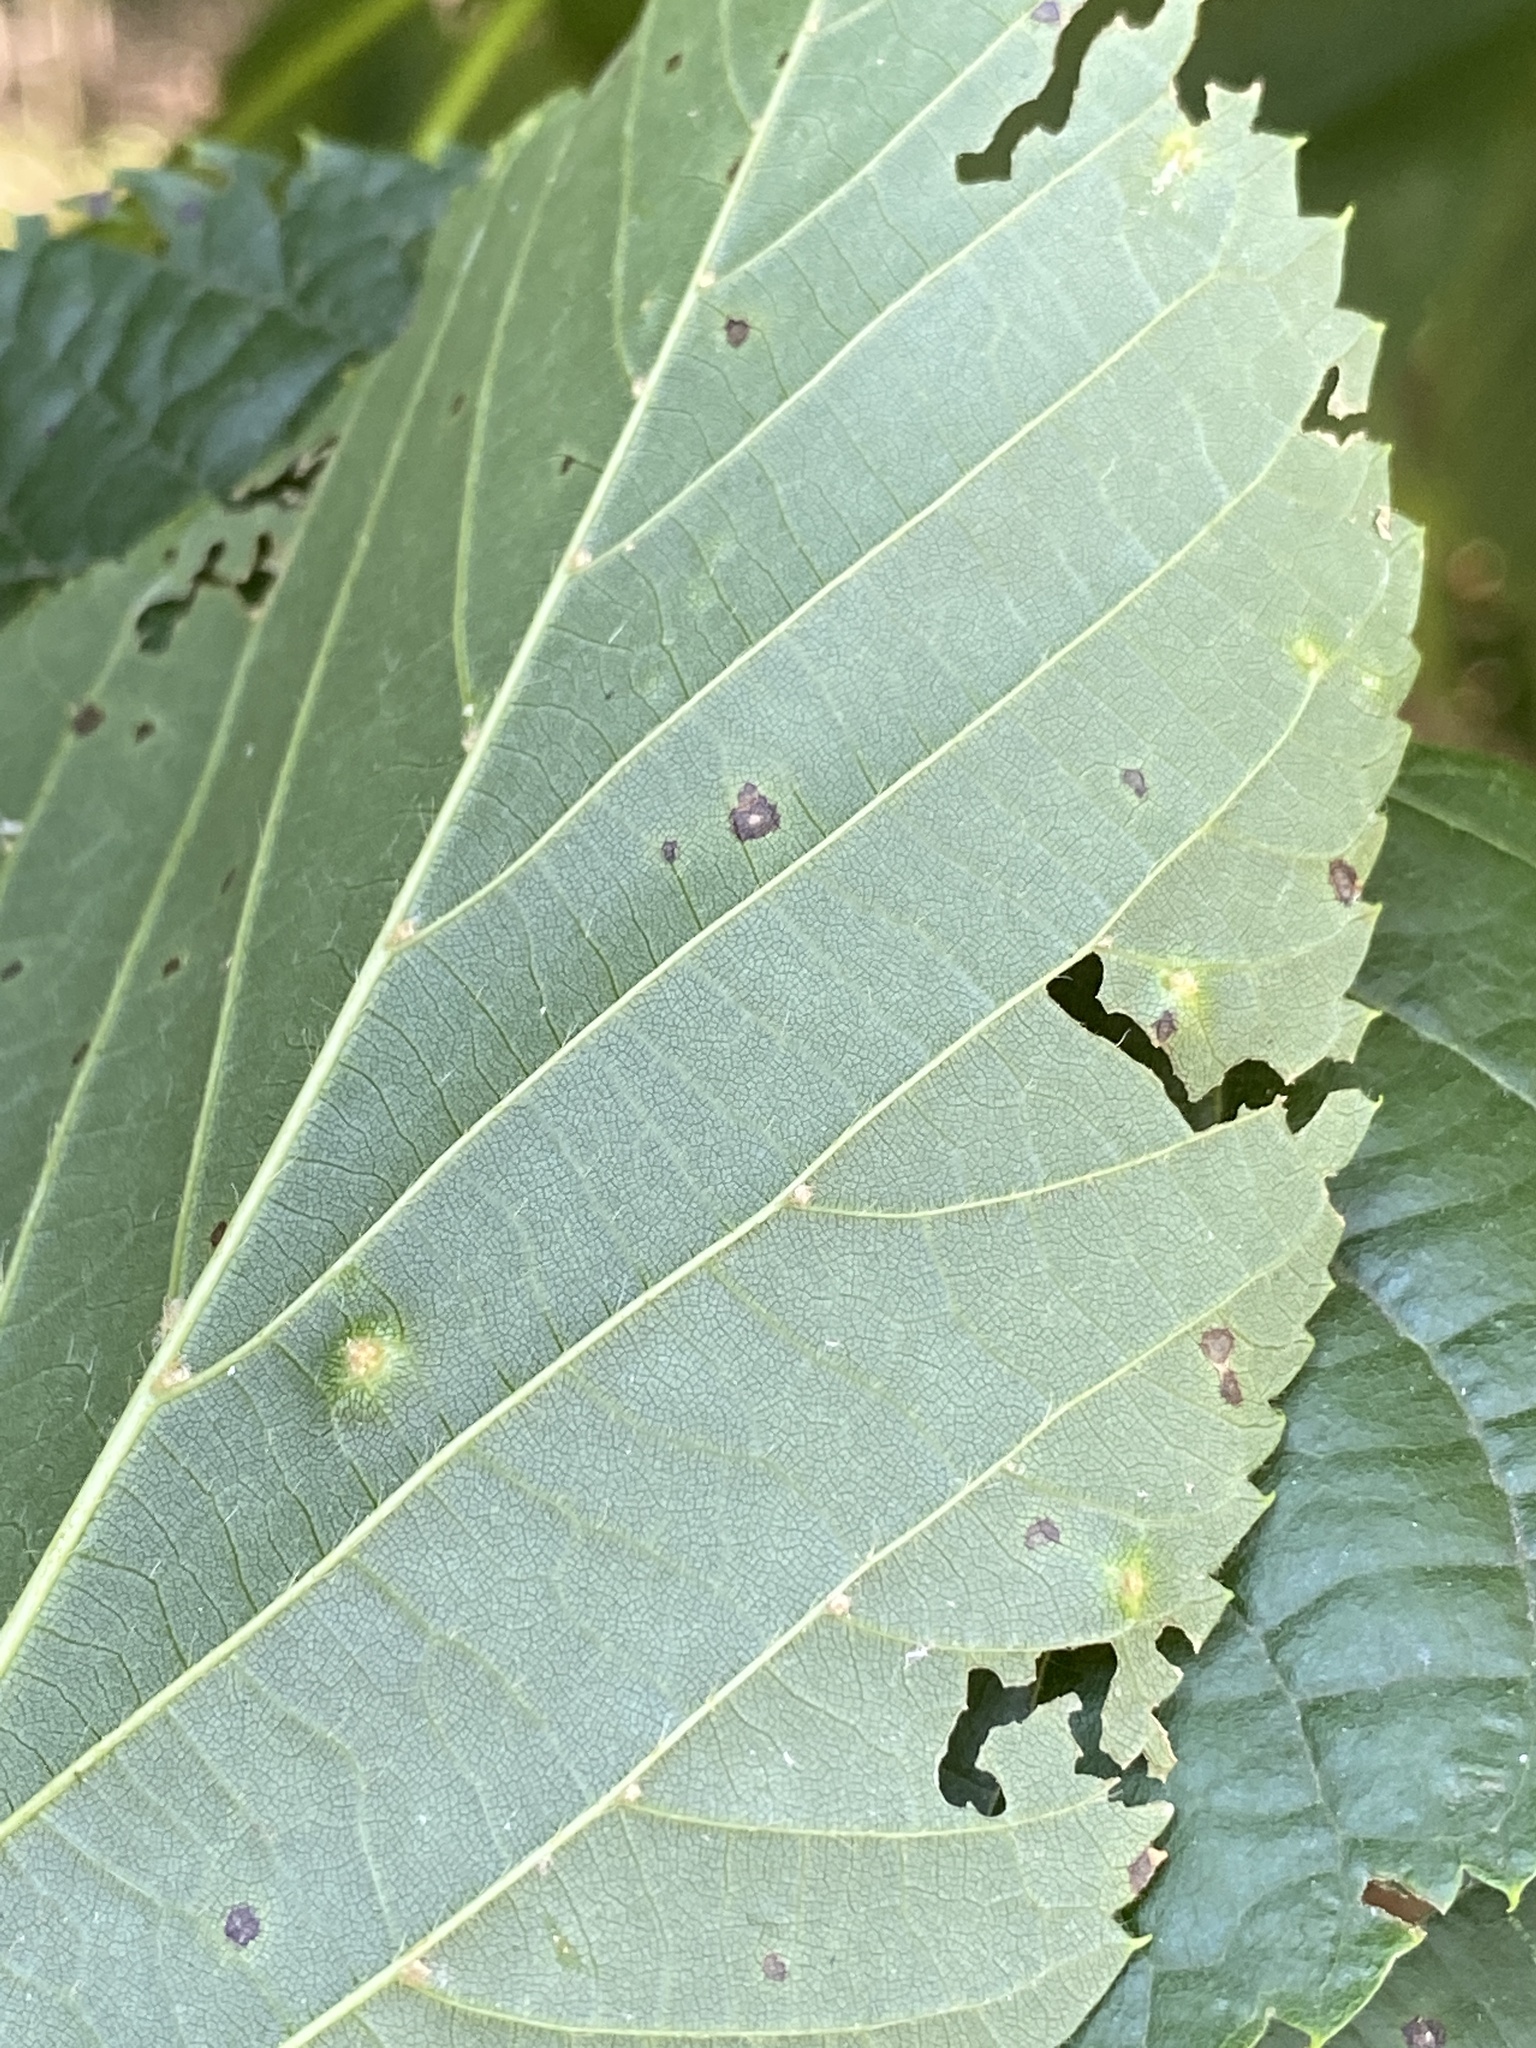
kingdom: Animalia
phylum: Arthropoda
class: Arachnida
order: Trombidiformes
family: Eriophyidae
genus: Eriophyes
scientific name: Eriophyes tiliae
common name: Red nail gall mite
